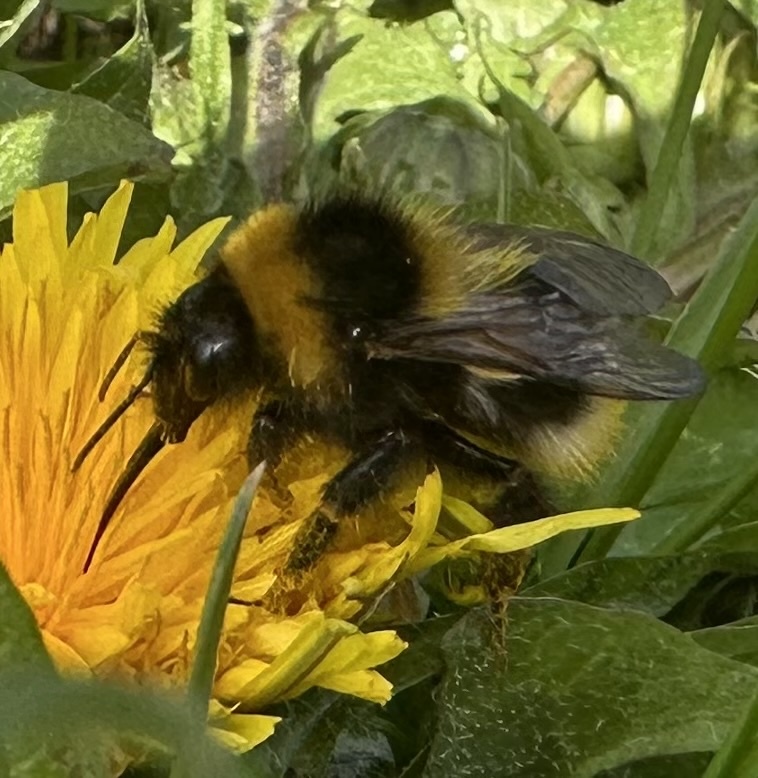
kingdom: Animalia
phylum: Arthropoda
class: Insecta
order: Hymenoptera
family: Apidae
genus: Bombus
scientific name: Bombus hortorum
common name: Garden bumblebee
